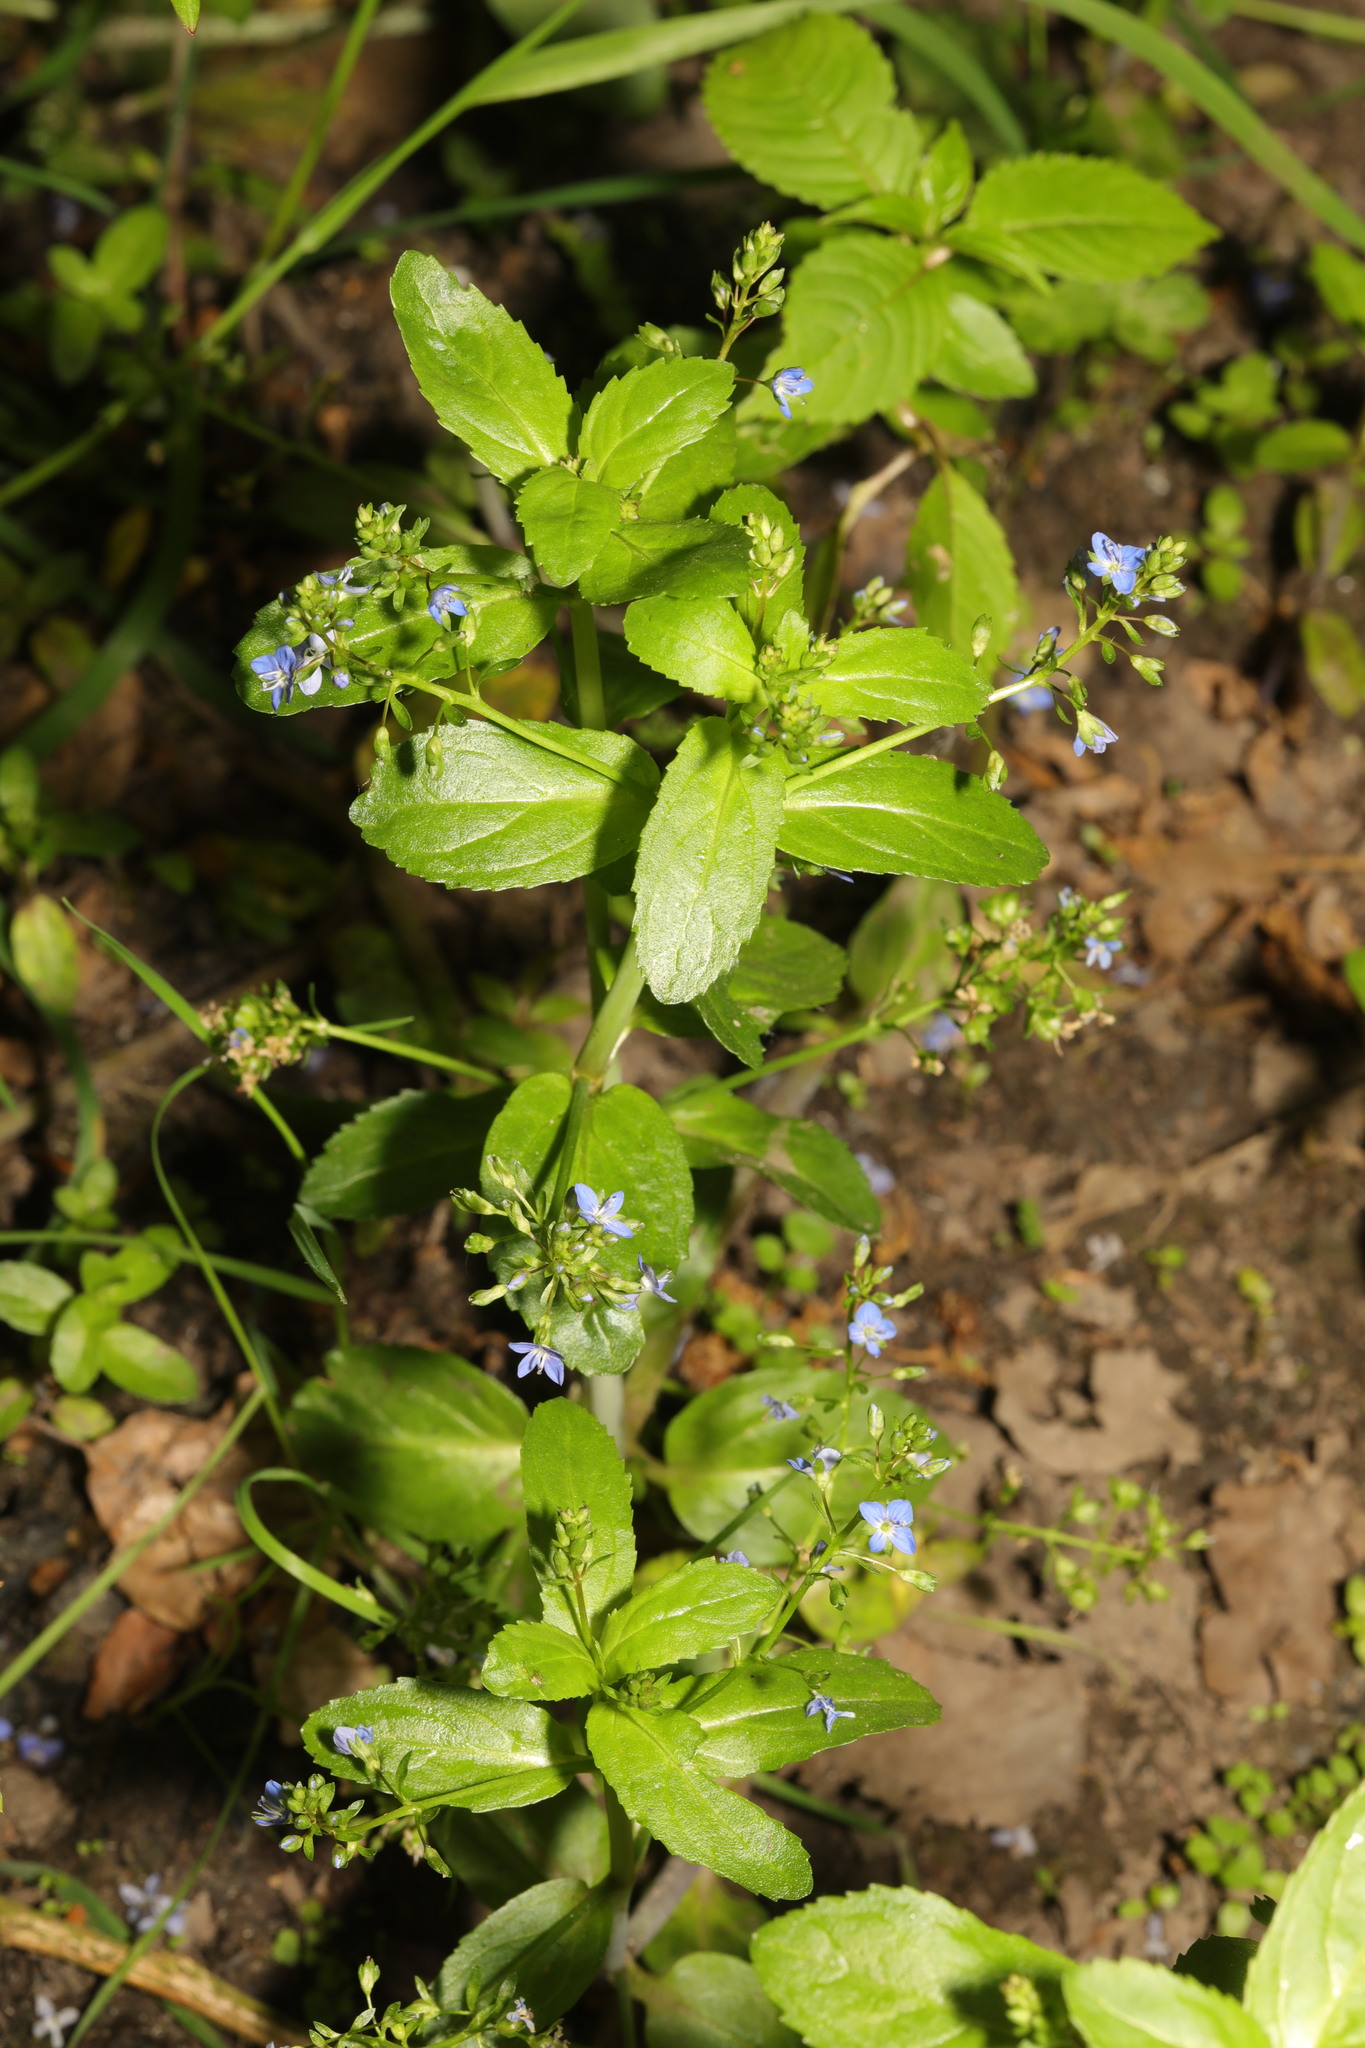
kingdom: Plantae
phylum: Tracheophyta
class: Magnoliopsida
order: Lamiales
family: Plantaginaceae
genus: Veronica
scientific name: Veronica beccabunga
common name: Brooklime
